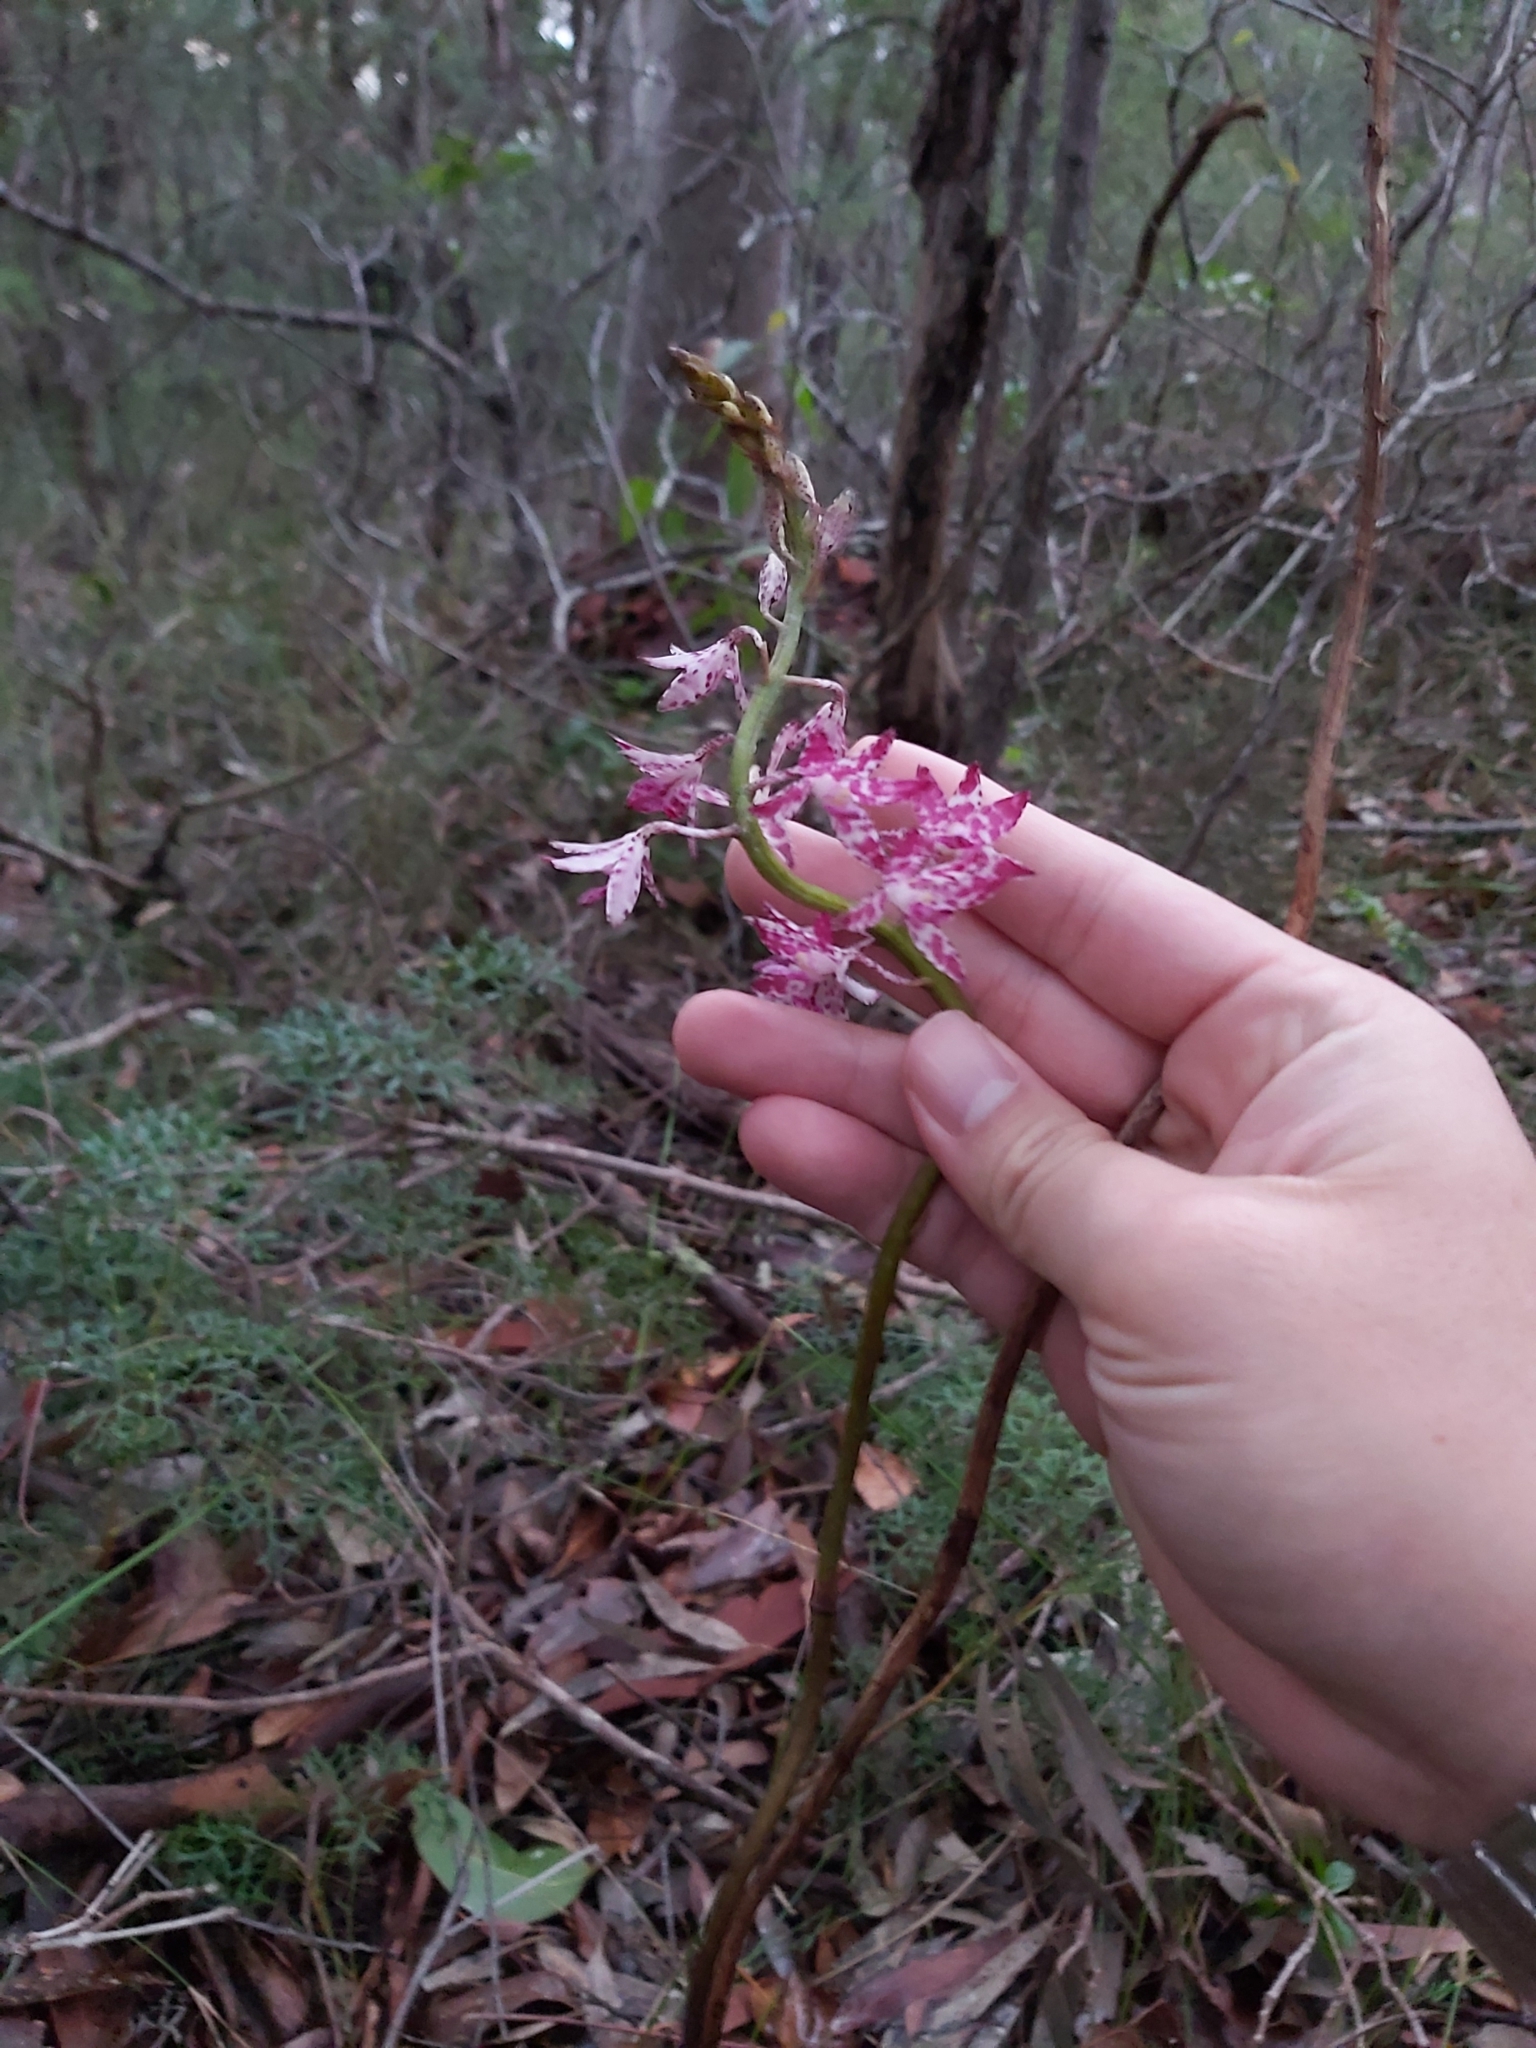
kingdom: Plantae
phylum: Tracheophyta
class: Liliopsida
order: Asparagales
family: Orchidaceae
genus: Dipodium
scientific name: Dipodium variegatum
